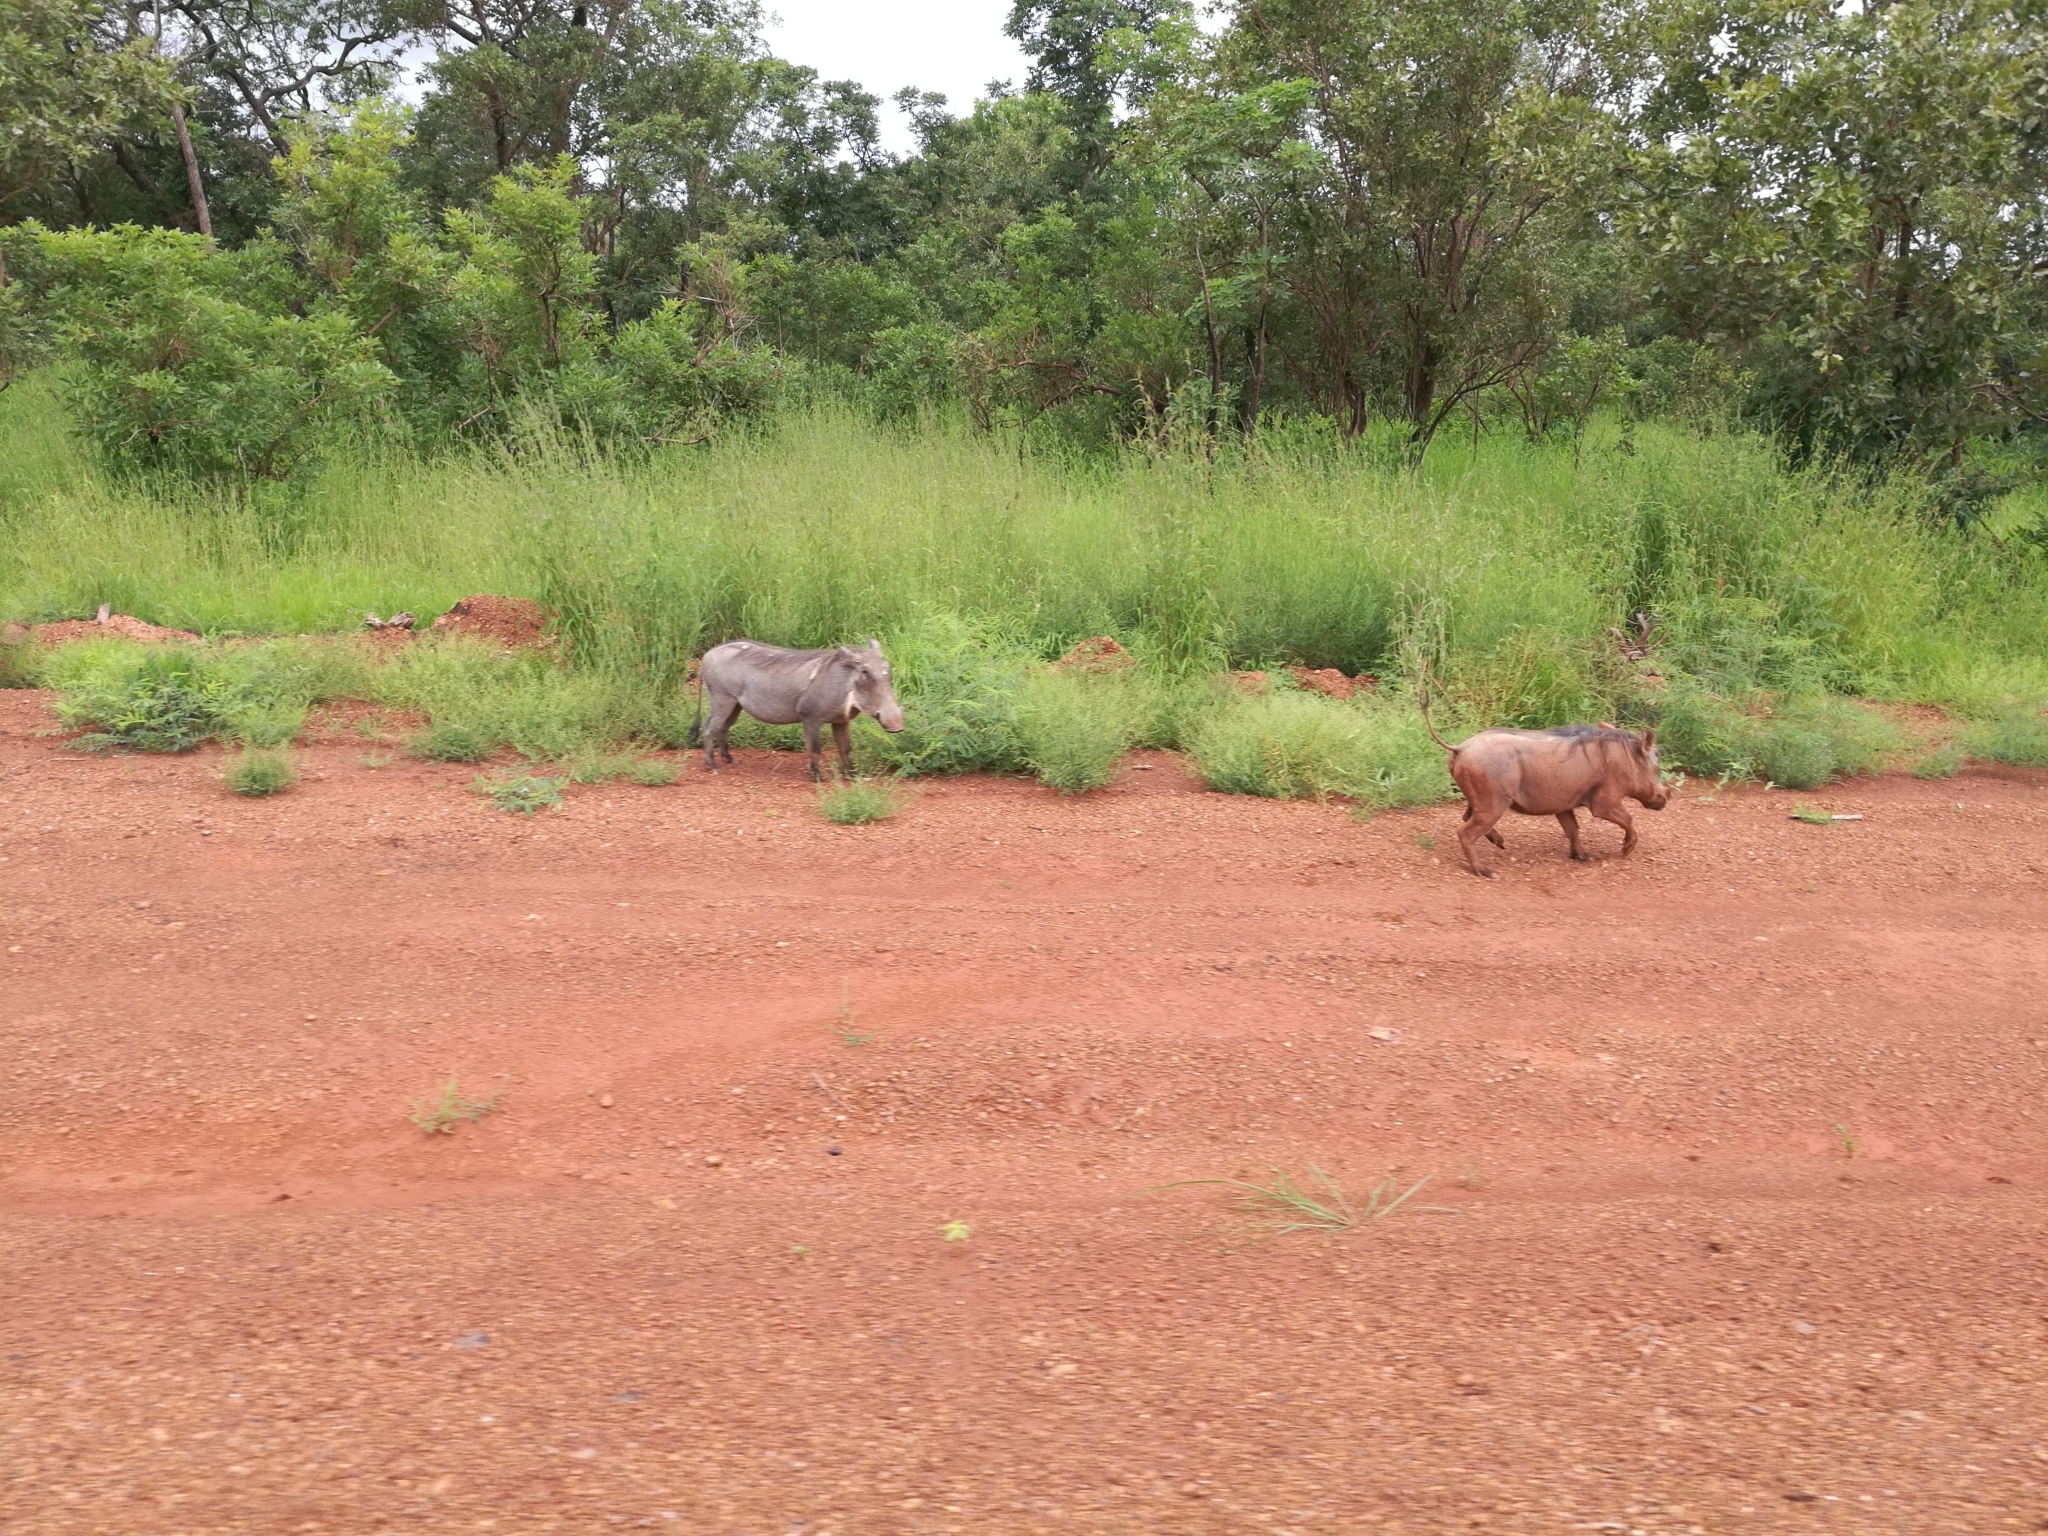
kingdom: Animalia
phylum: Chordata
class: Mammalia
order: Artiodactyla
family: Suidae
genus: Phacochoerus
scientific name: Phacochoerus africanus
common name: Common warthog
